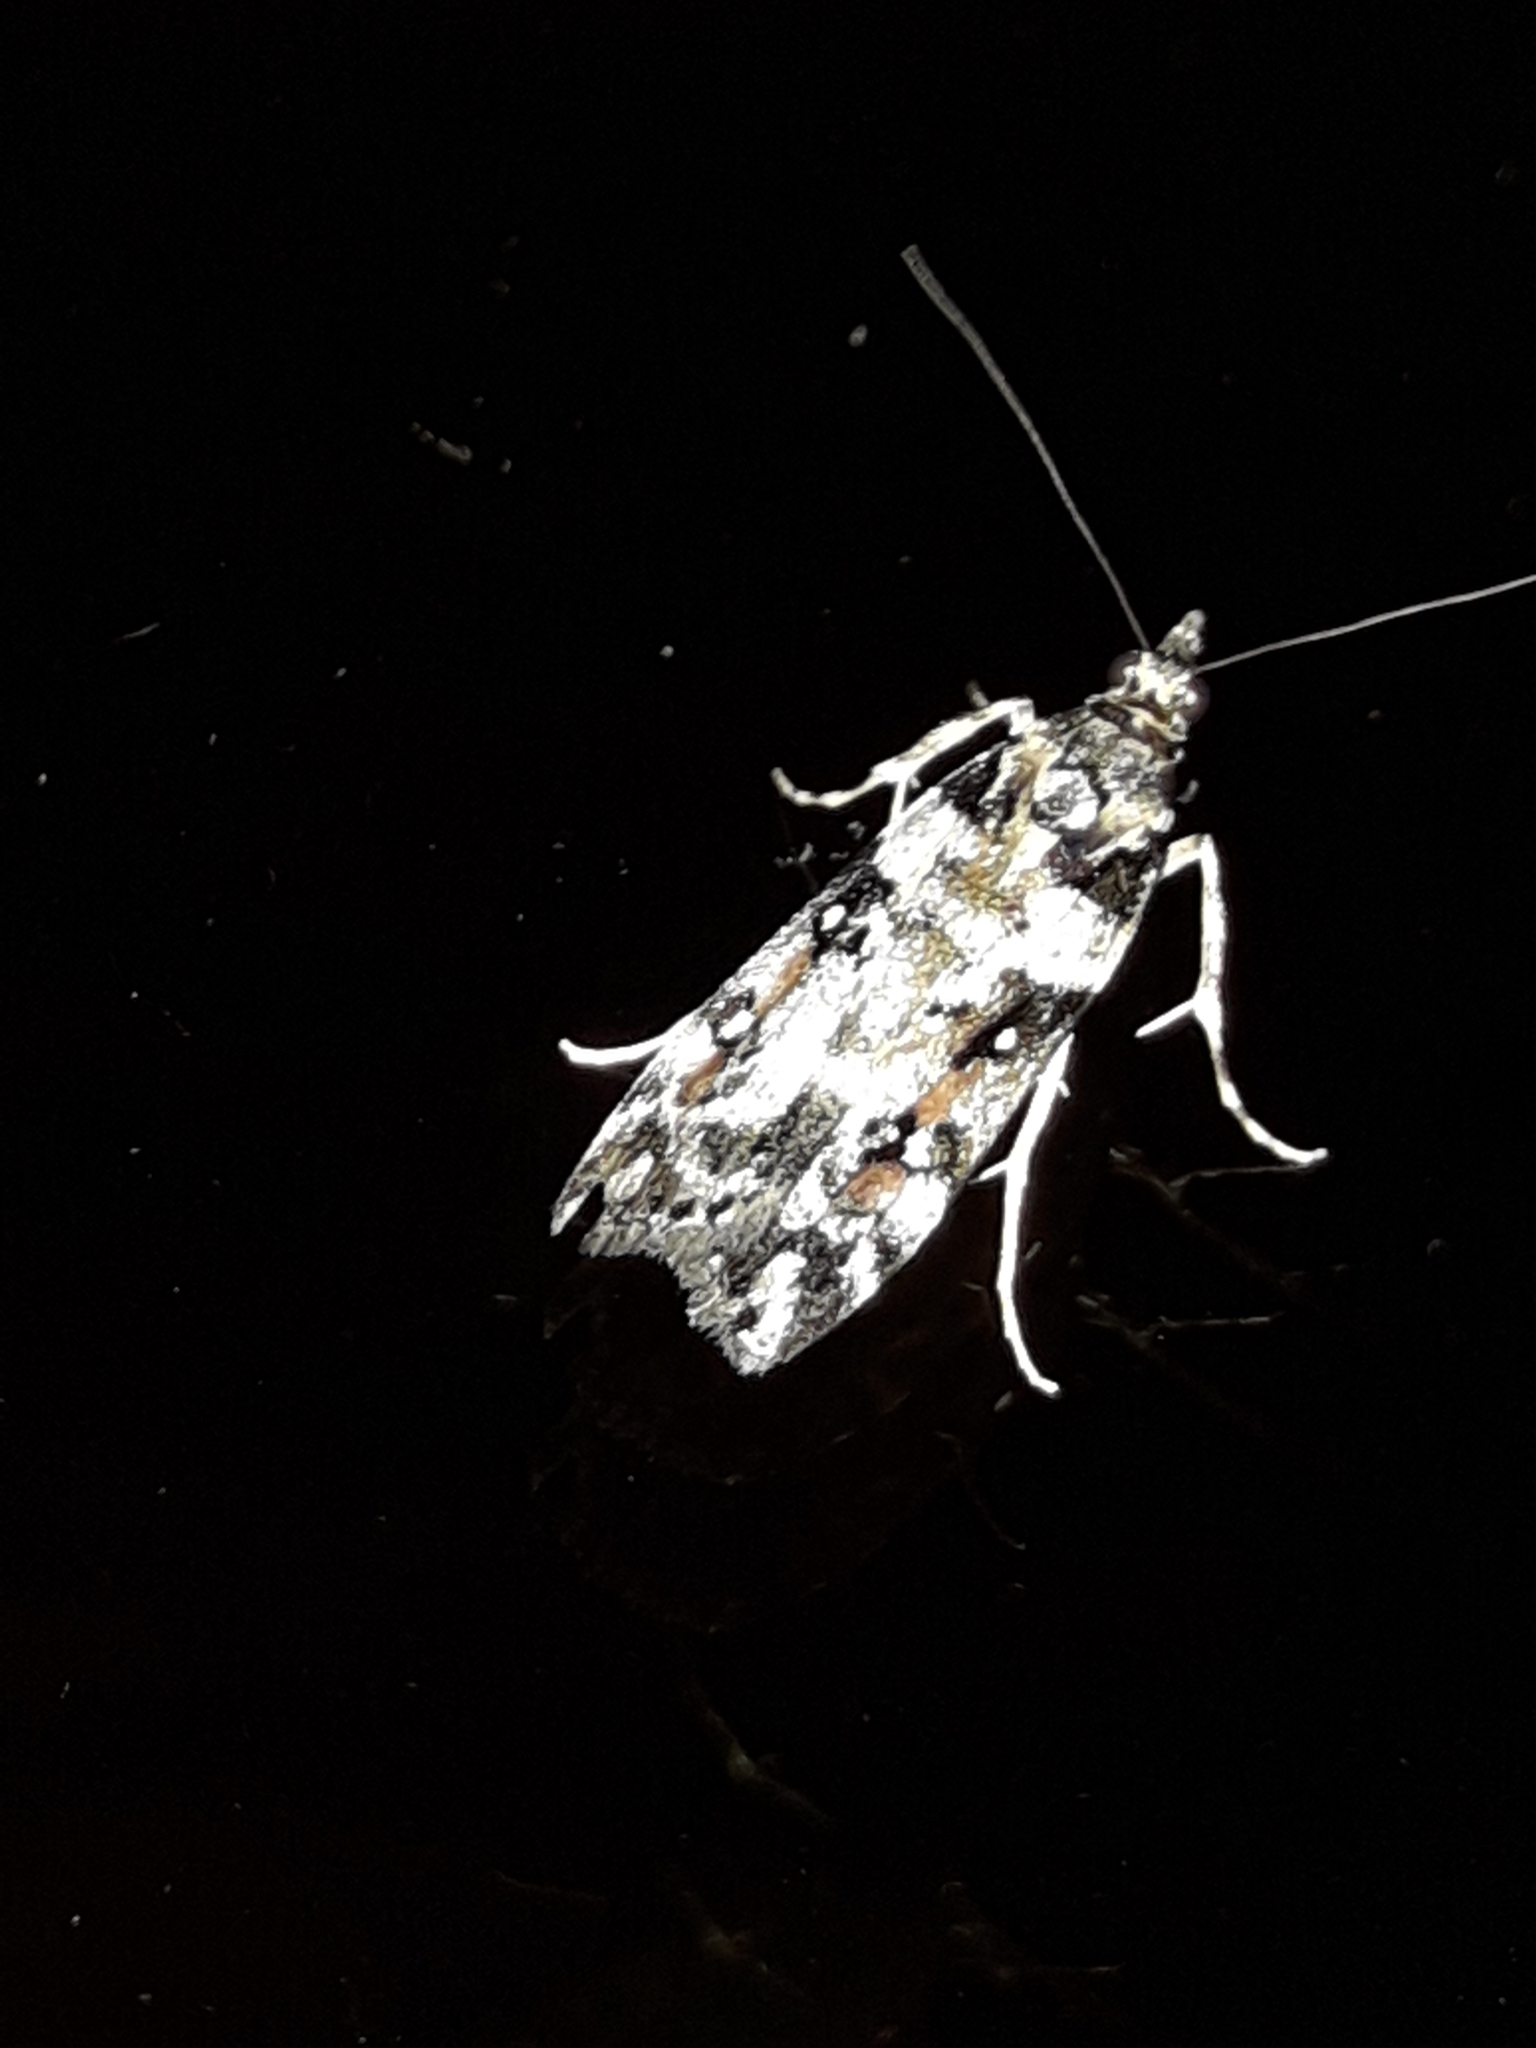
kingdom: Animalia
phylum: Arthropoda
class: Insecta
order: Lepidoptera
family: Crambidae
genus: Eudonia
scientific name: Eudonia diphtheralis
